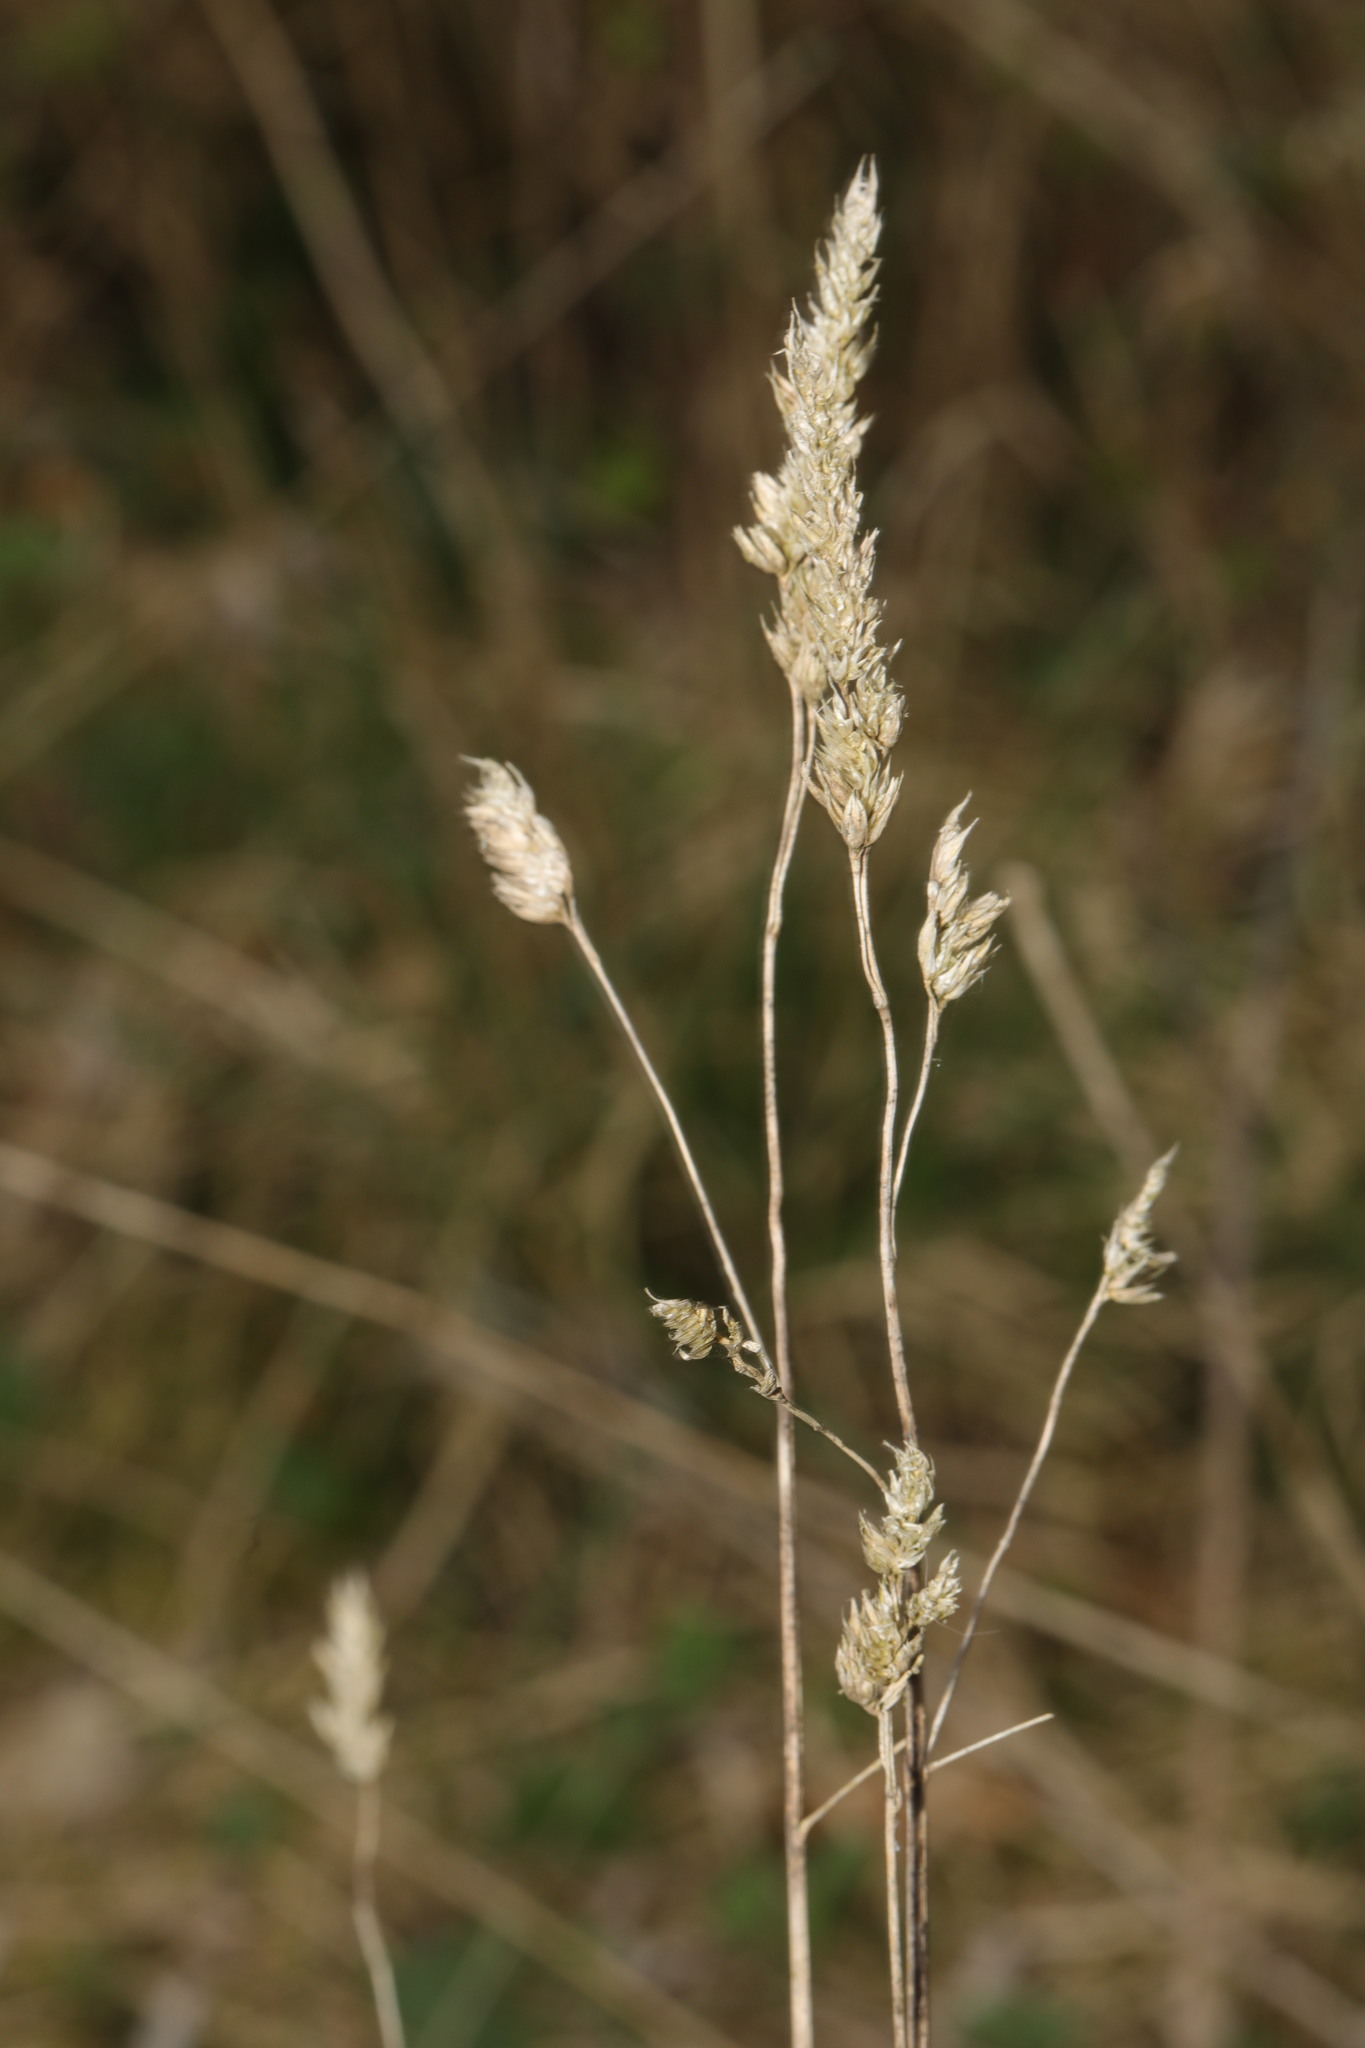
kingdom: Plantae
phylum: Tracheophyta
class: Liliopsida
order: Poales
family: Poaceae
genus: Dactylis
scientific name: Dactylis glomerata
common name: Orchardgrass
